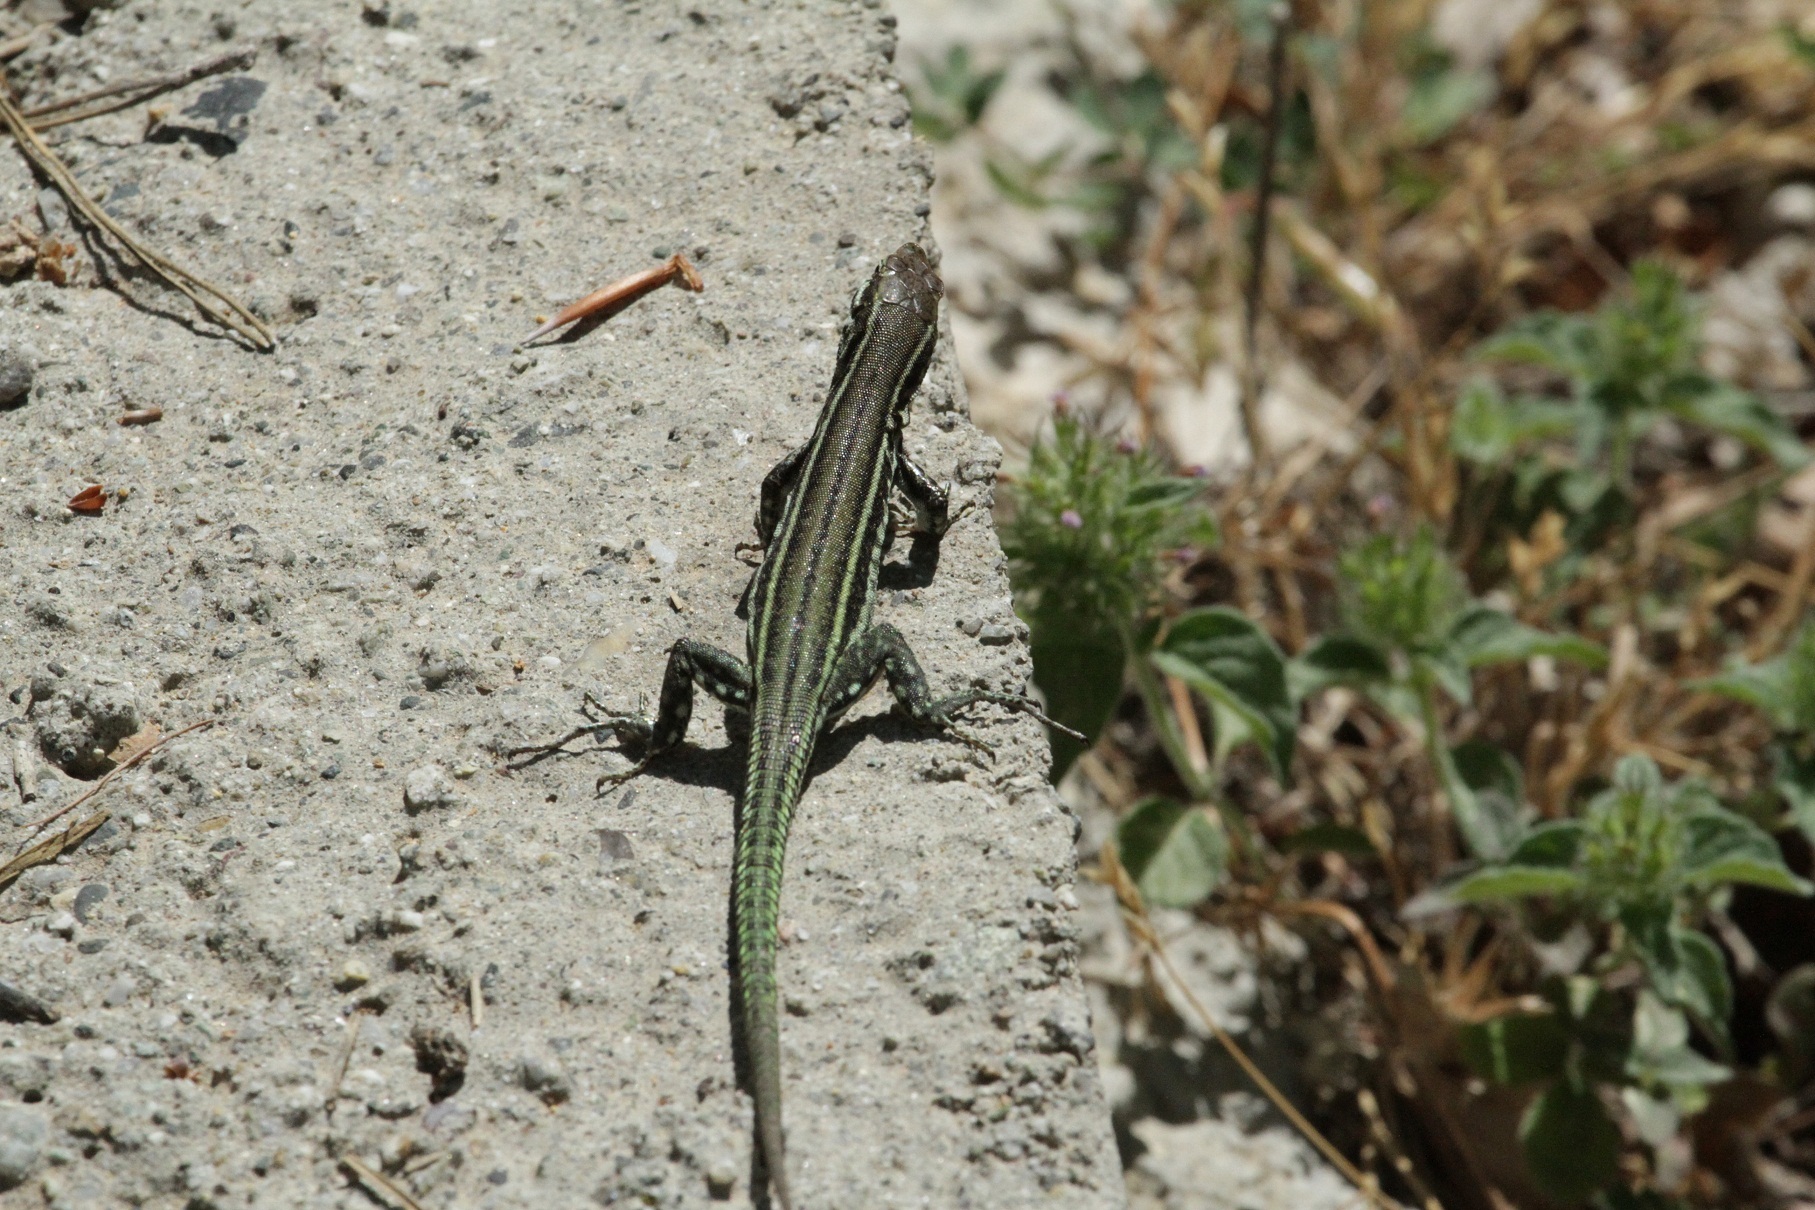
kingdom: Animalia
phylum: Chordata
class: Squamata
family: Lacertidae
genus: Podarcis
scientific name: Podarcis tiliguerta
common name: Tyrrhenian wall lizard
